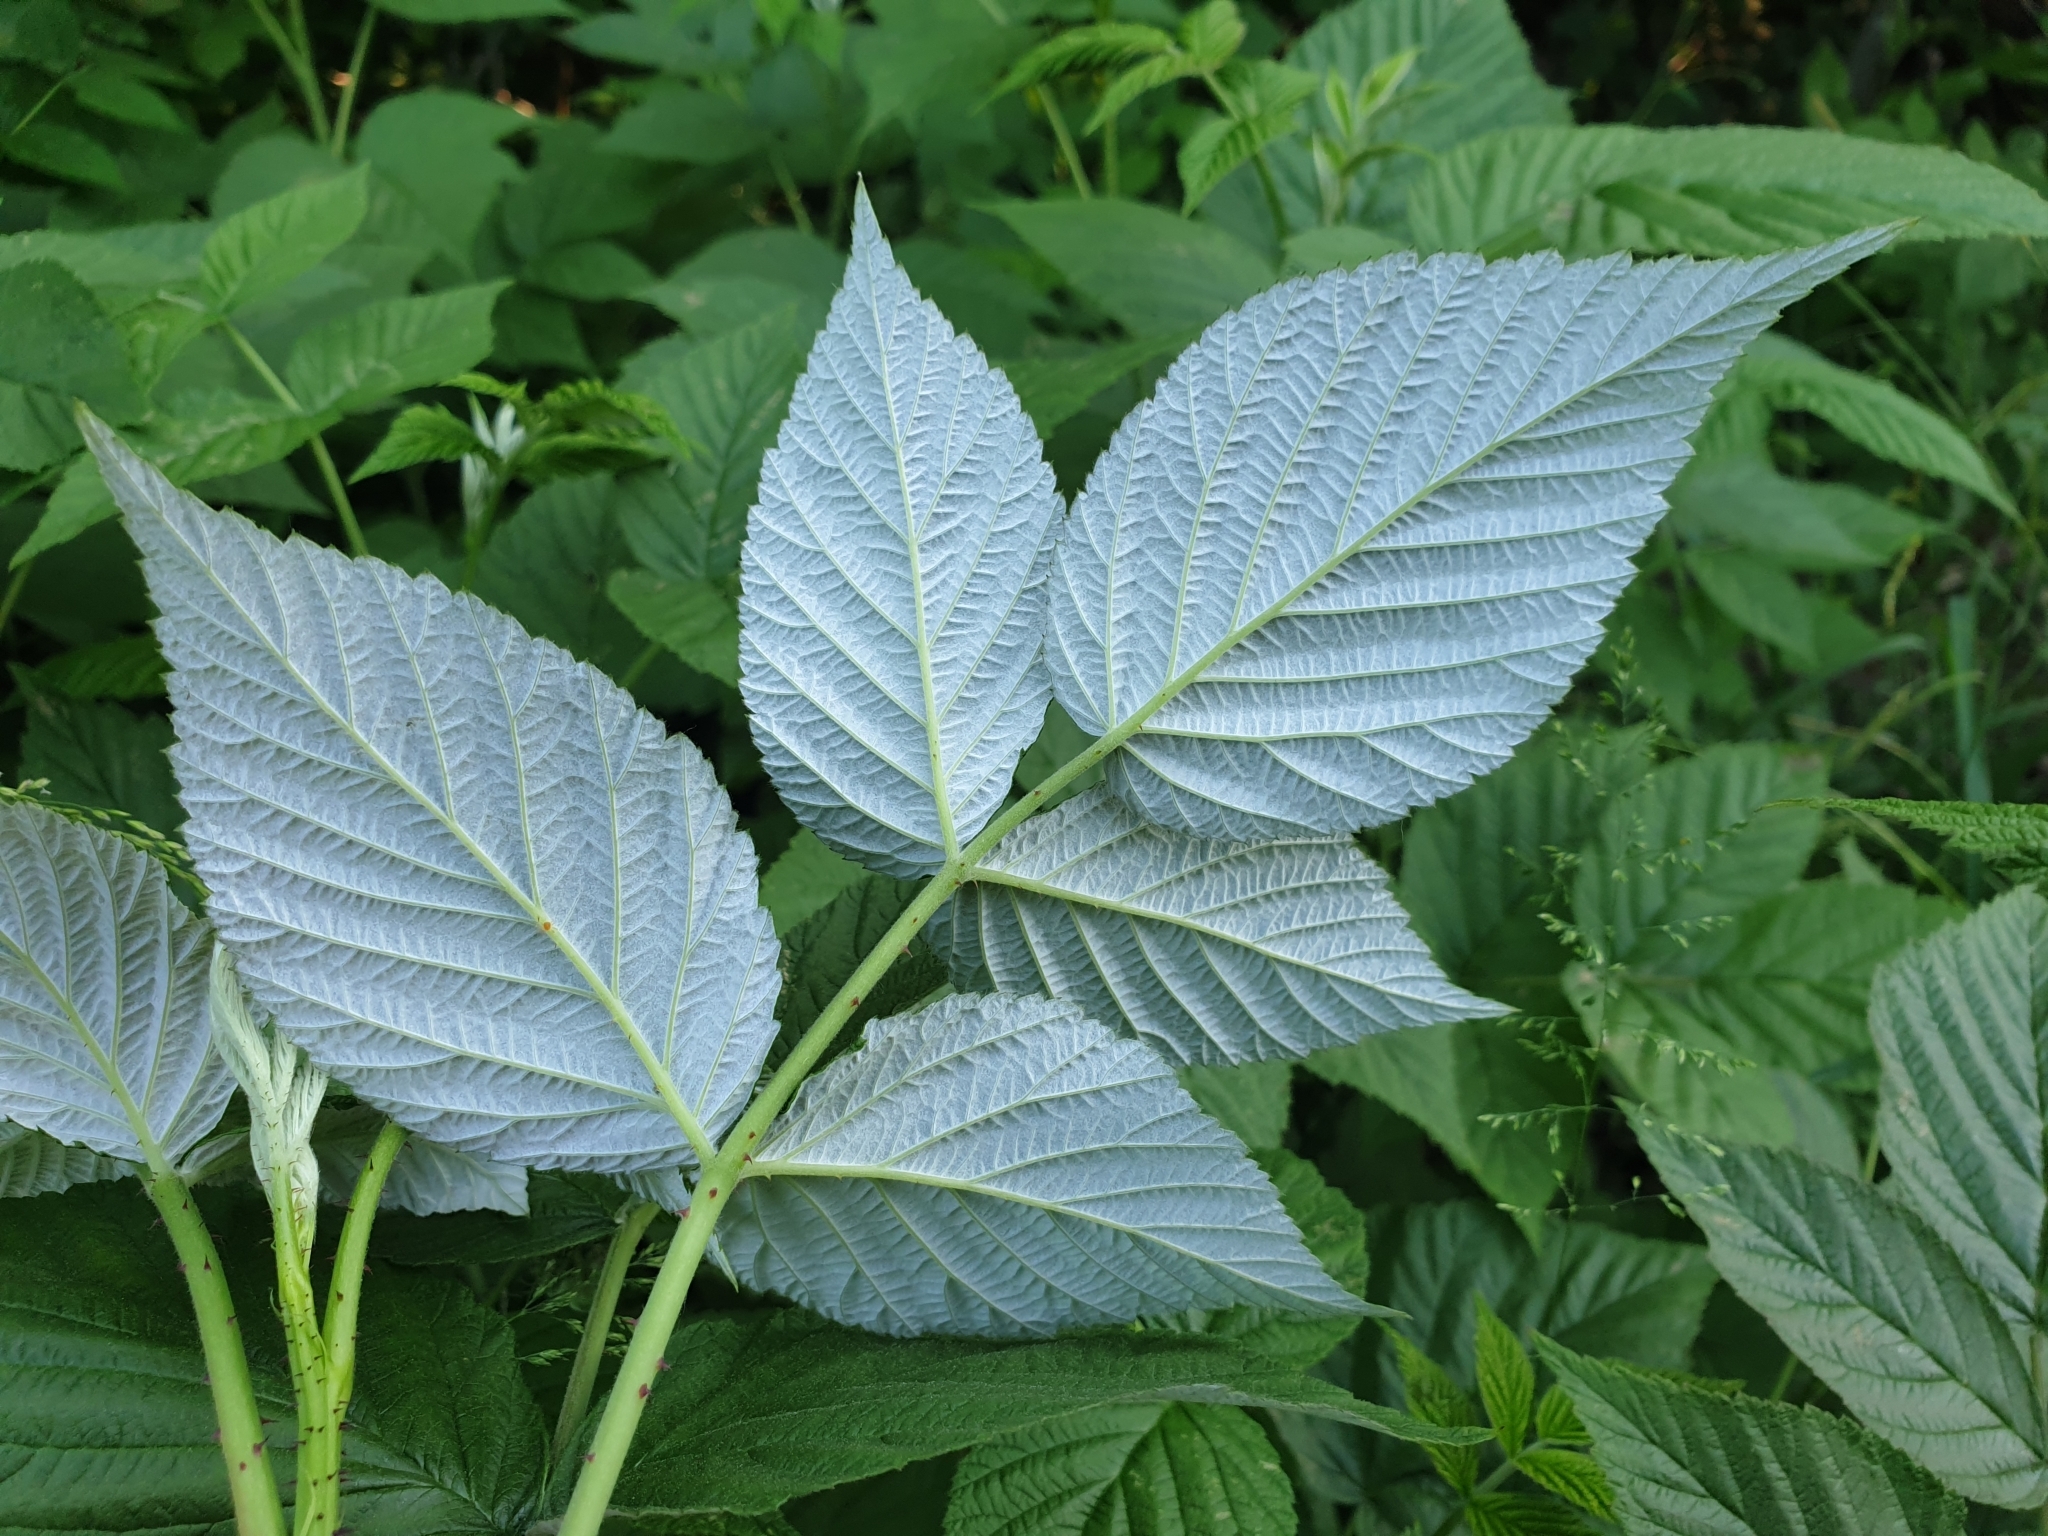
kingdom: Plantae
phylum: Tracheophyta
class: Magnoliopsida
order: Rosales
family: Rosaceae
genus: Rubus
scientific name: Rubus idaeus
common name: Raspberry
